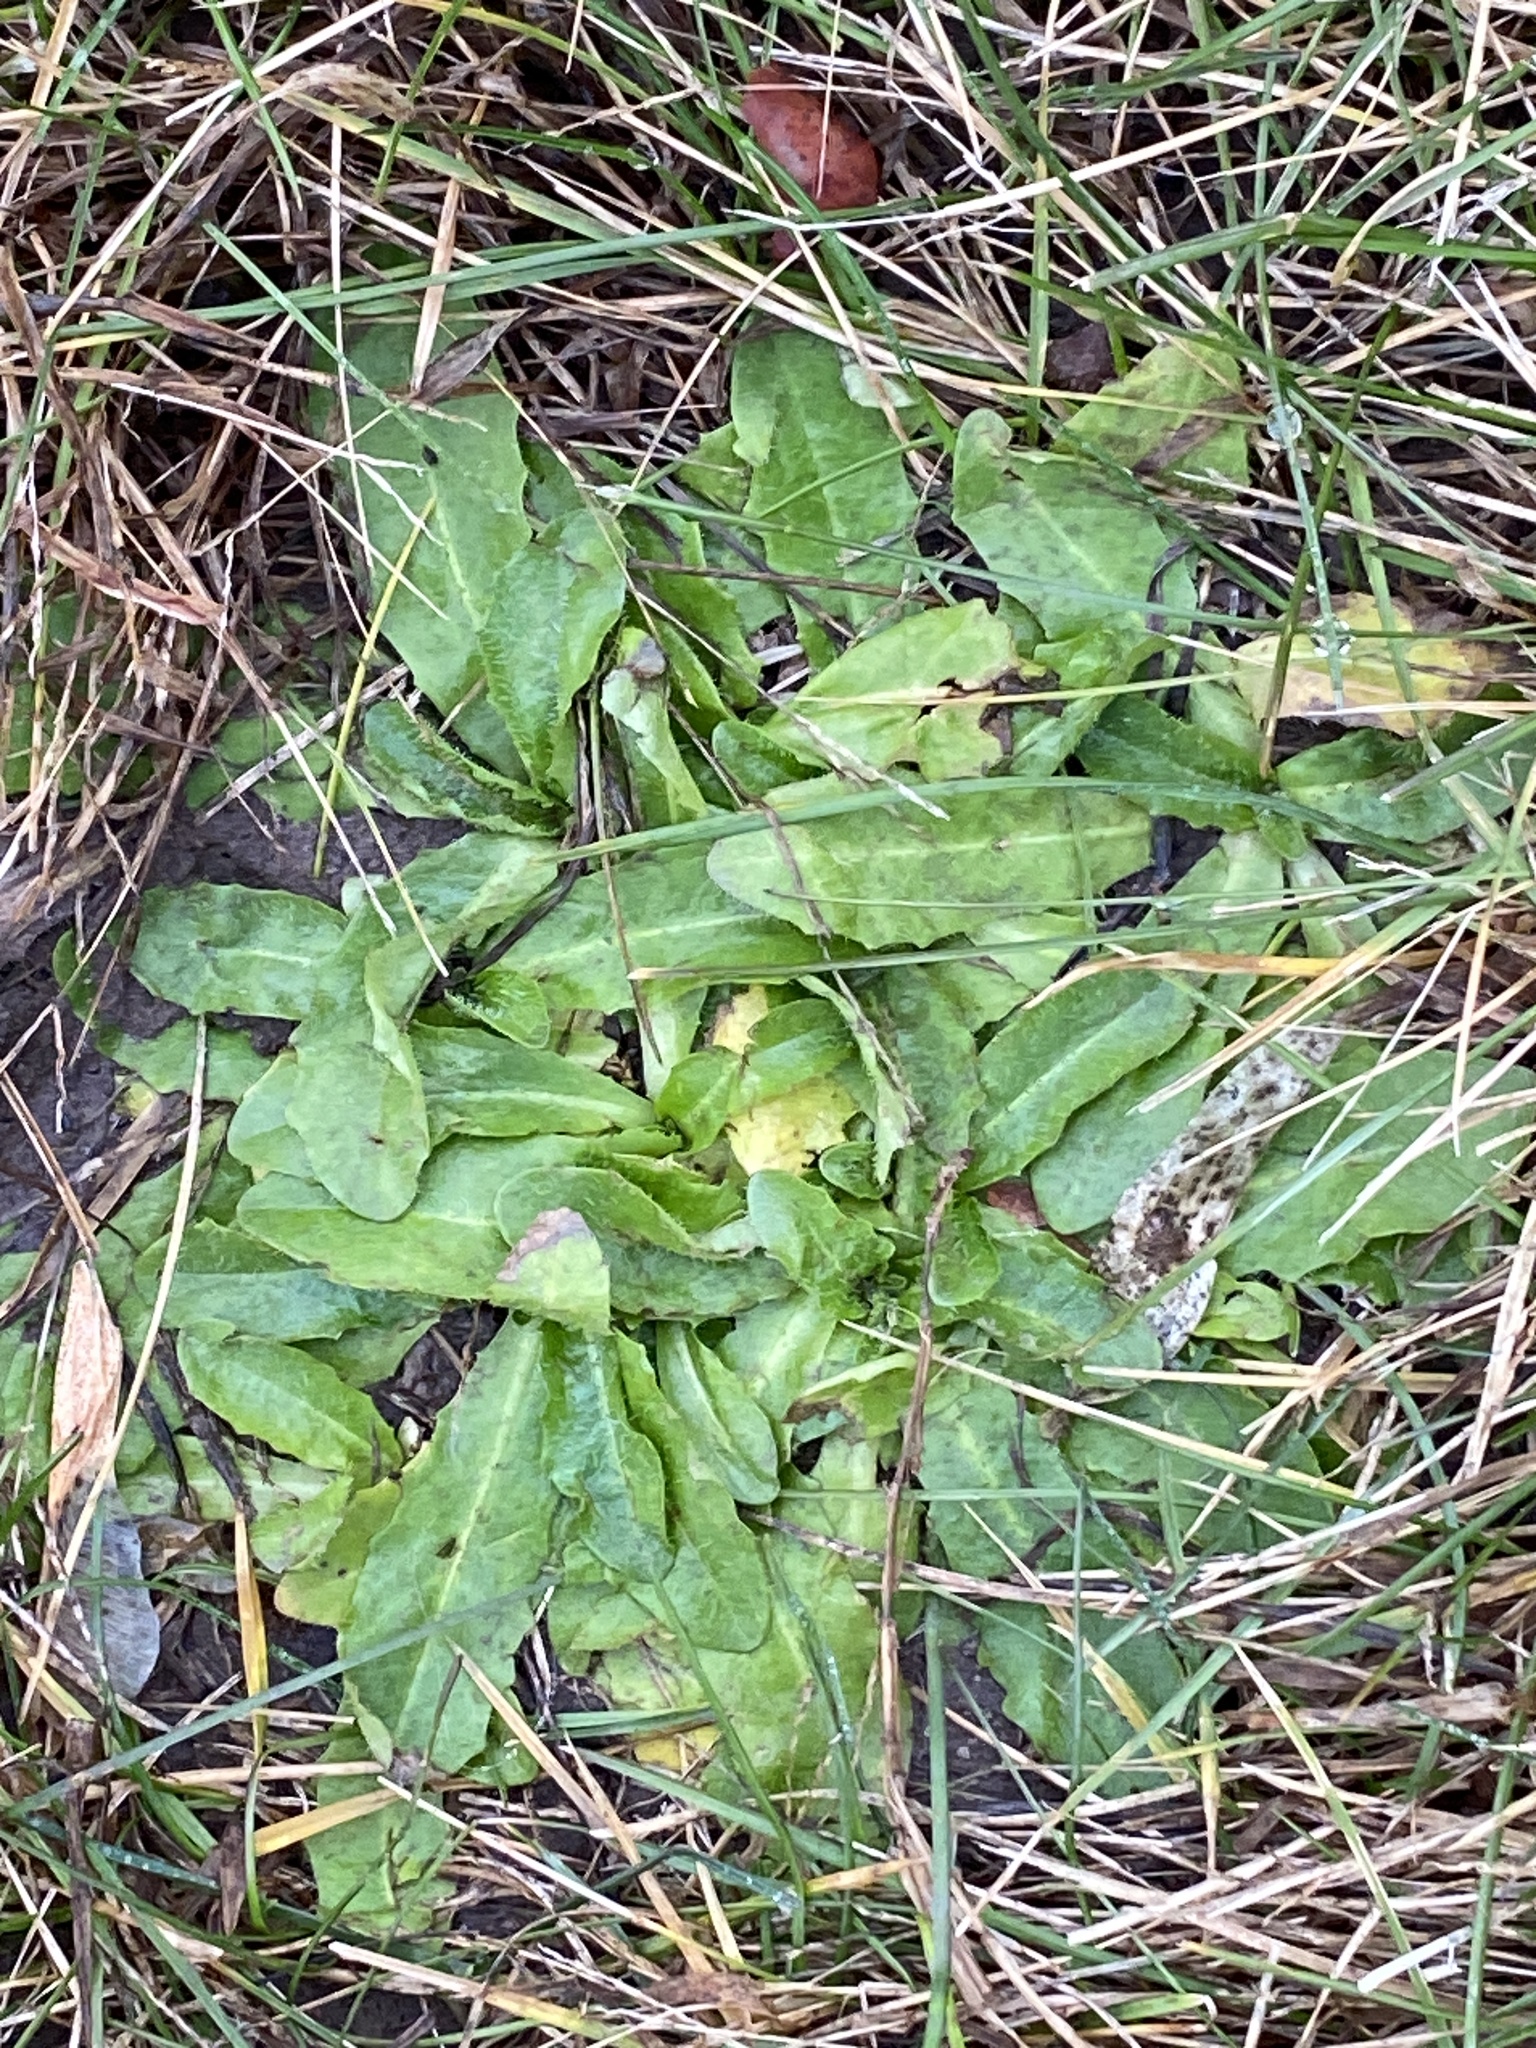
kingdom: Plantae
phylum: Tracheophyta
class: Magnoliopsida
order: Asterales
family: Asteraceae
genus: Hypochaeris
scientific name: Hypochaeris radicata
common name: Flatweed
